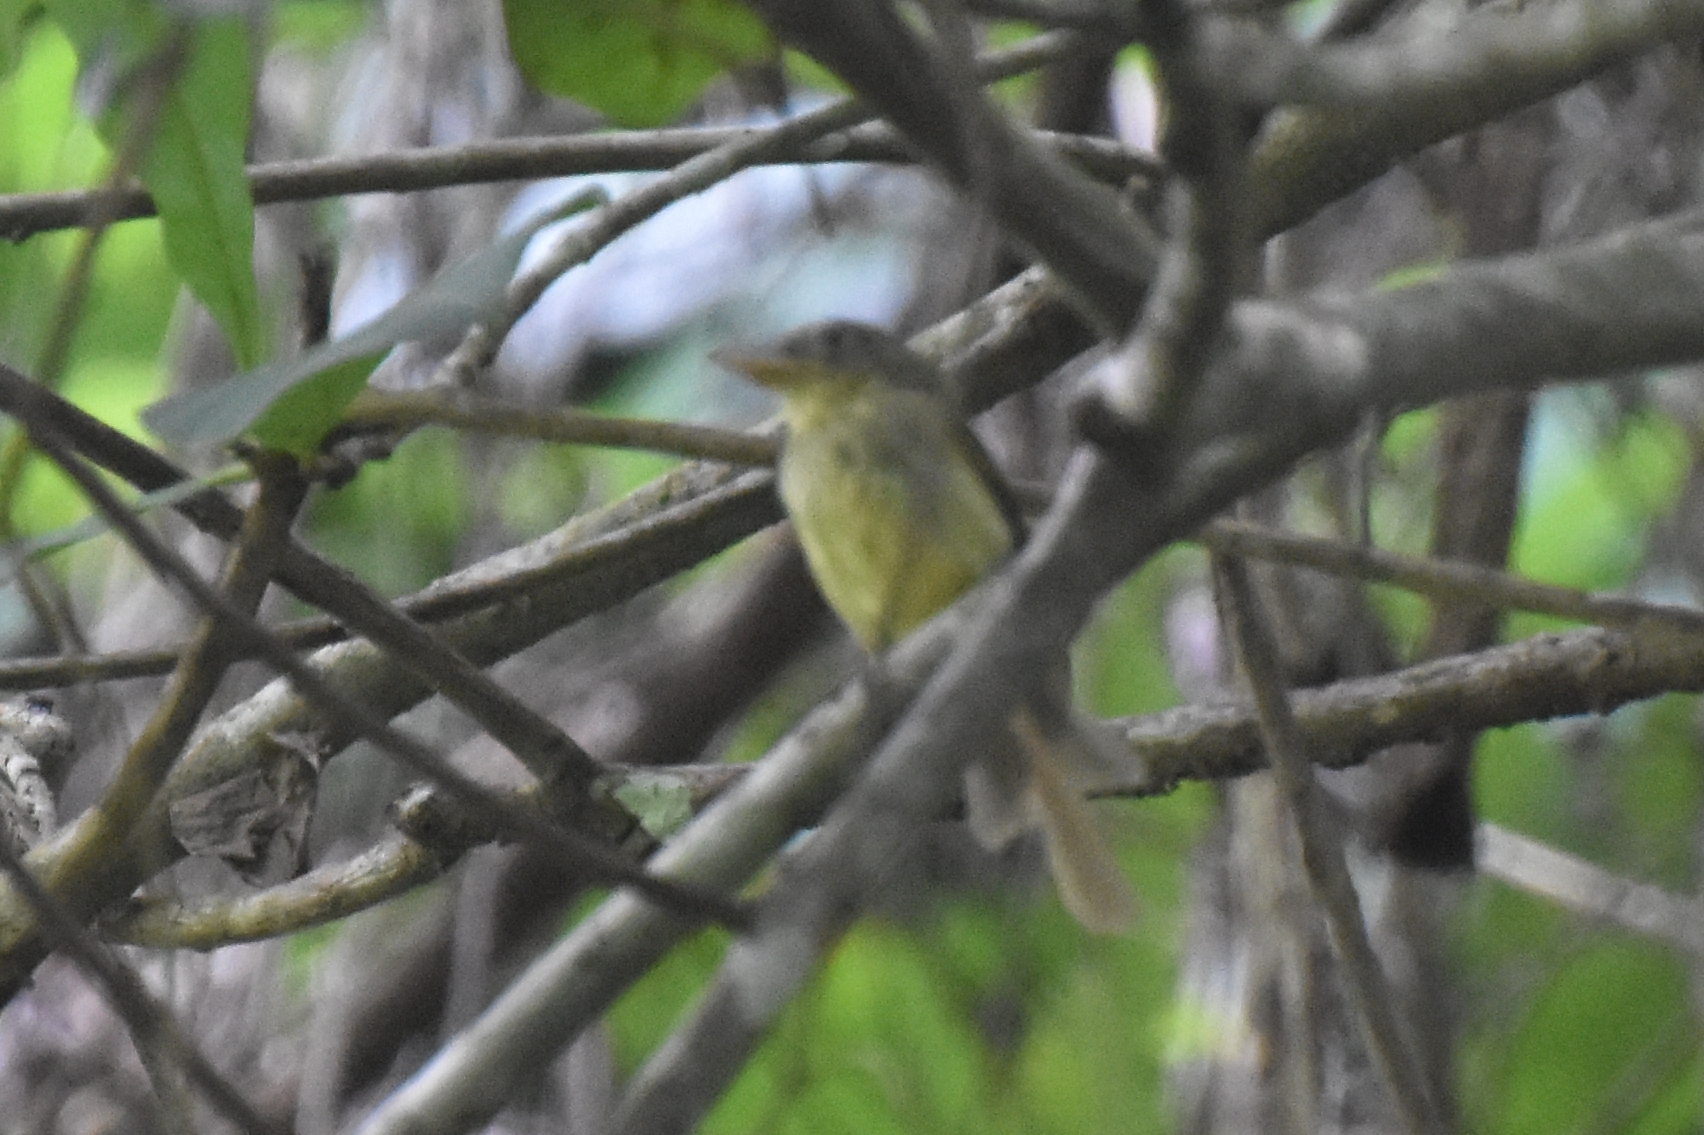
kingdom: Animalia
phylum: Chordata
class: Aves
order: Passeriformes
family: Tyrannidae
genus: Rhynchocyclus
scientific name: Rhynchocyclus olivaceus
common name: Olivaceous flatbill
